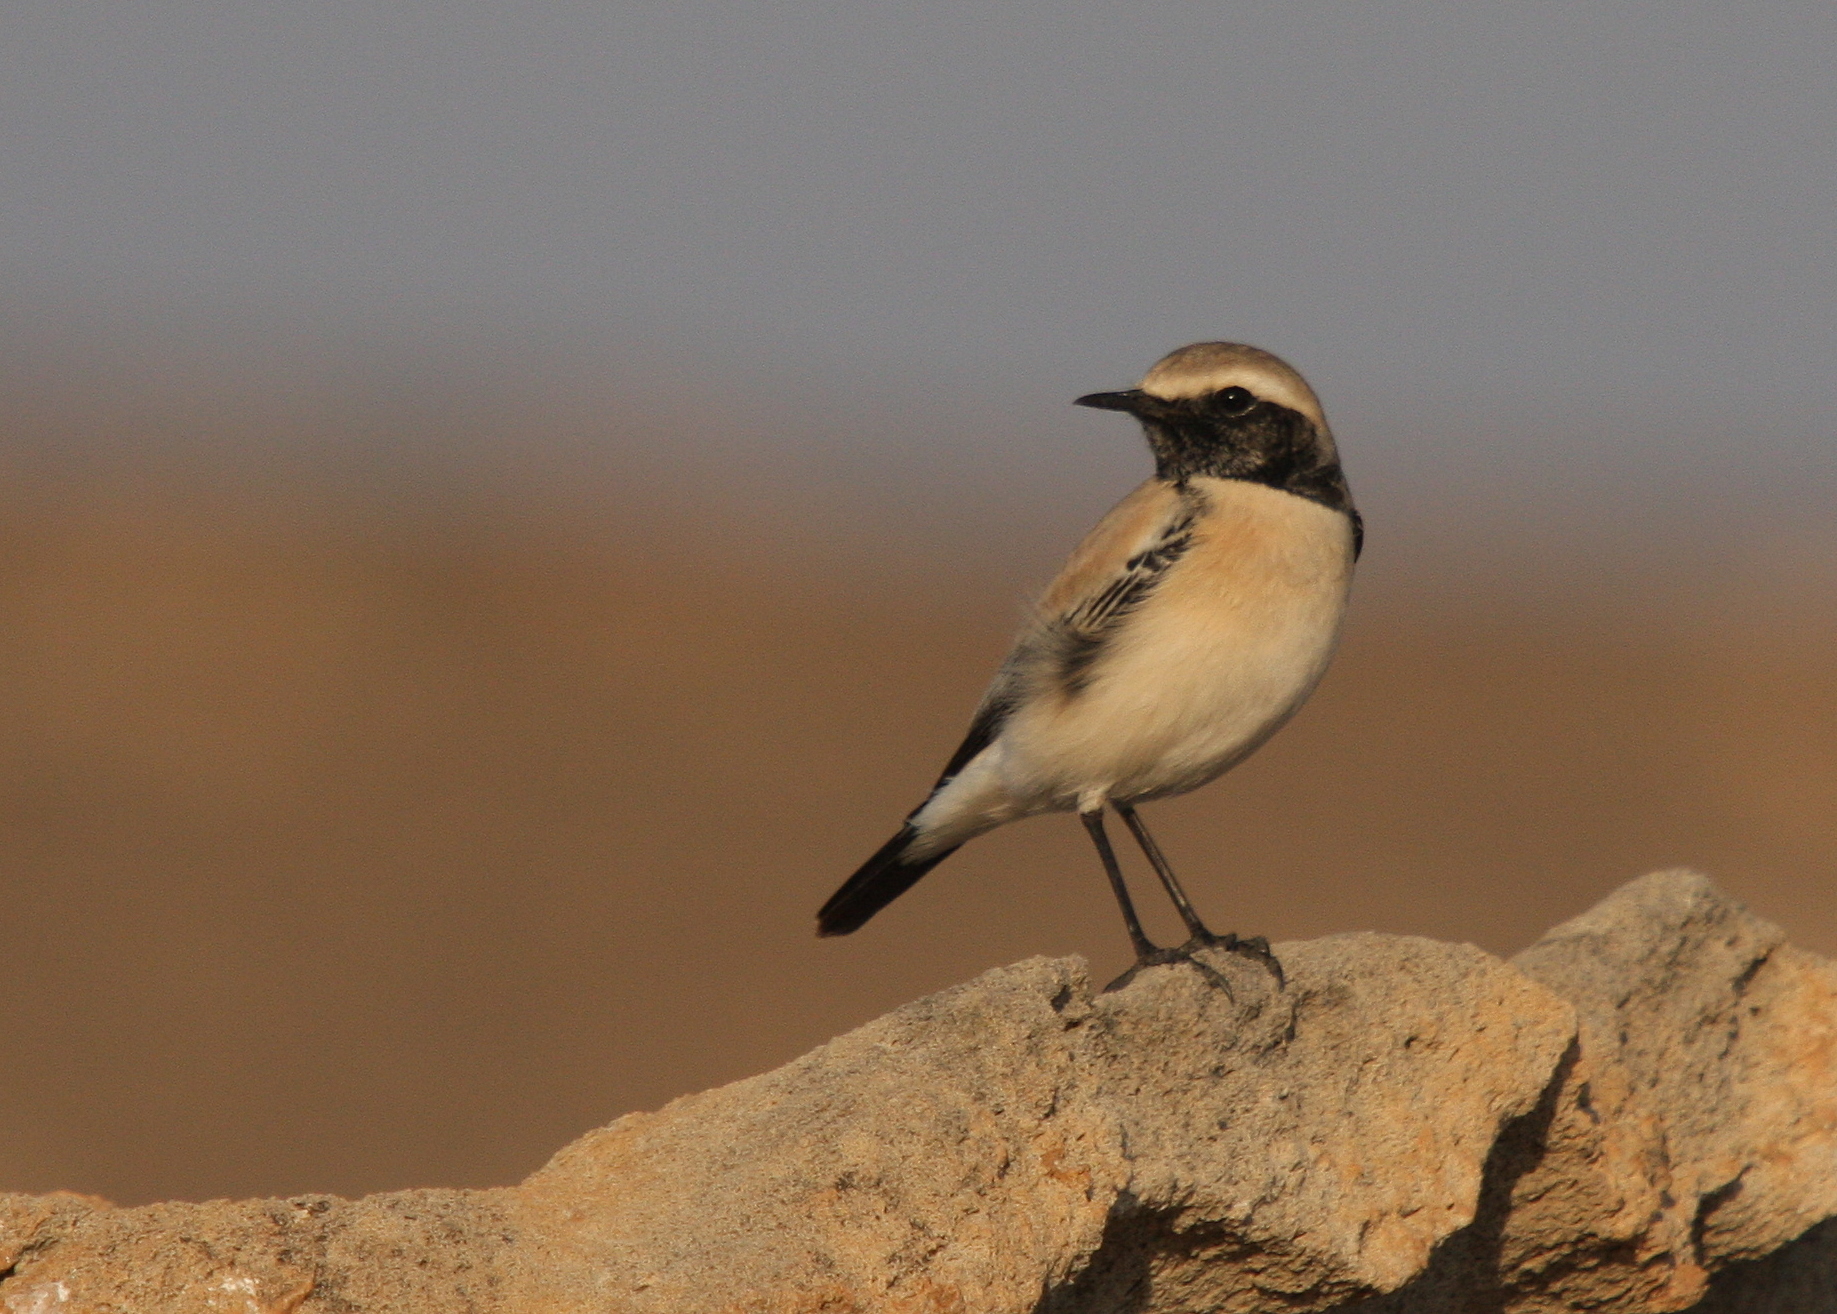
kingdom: Animalia
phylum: Chordata
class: Aves
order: Pelecaniformes
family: Threskiornithidae
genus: Plegadis
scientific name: Plegadis falcinellus
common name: Glossy ibis
